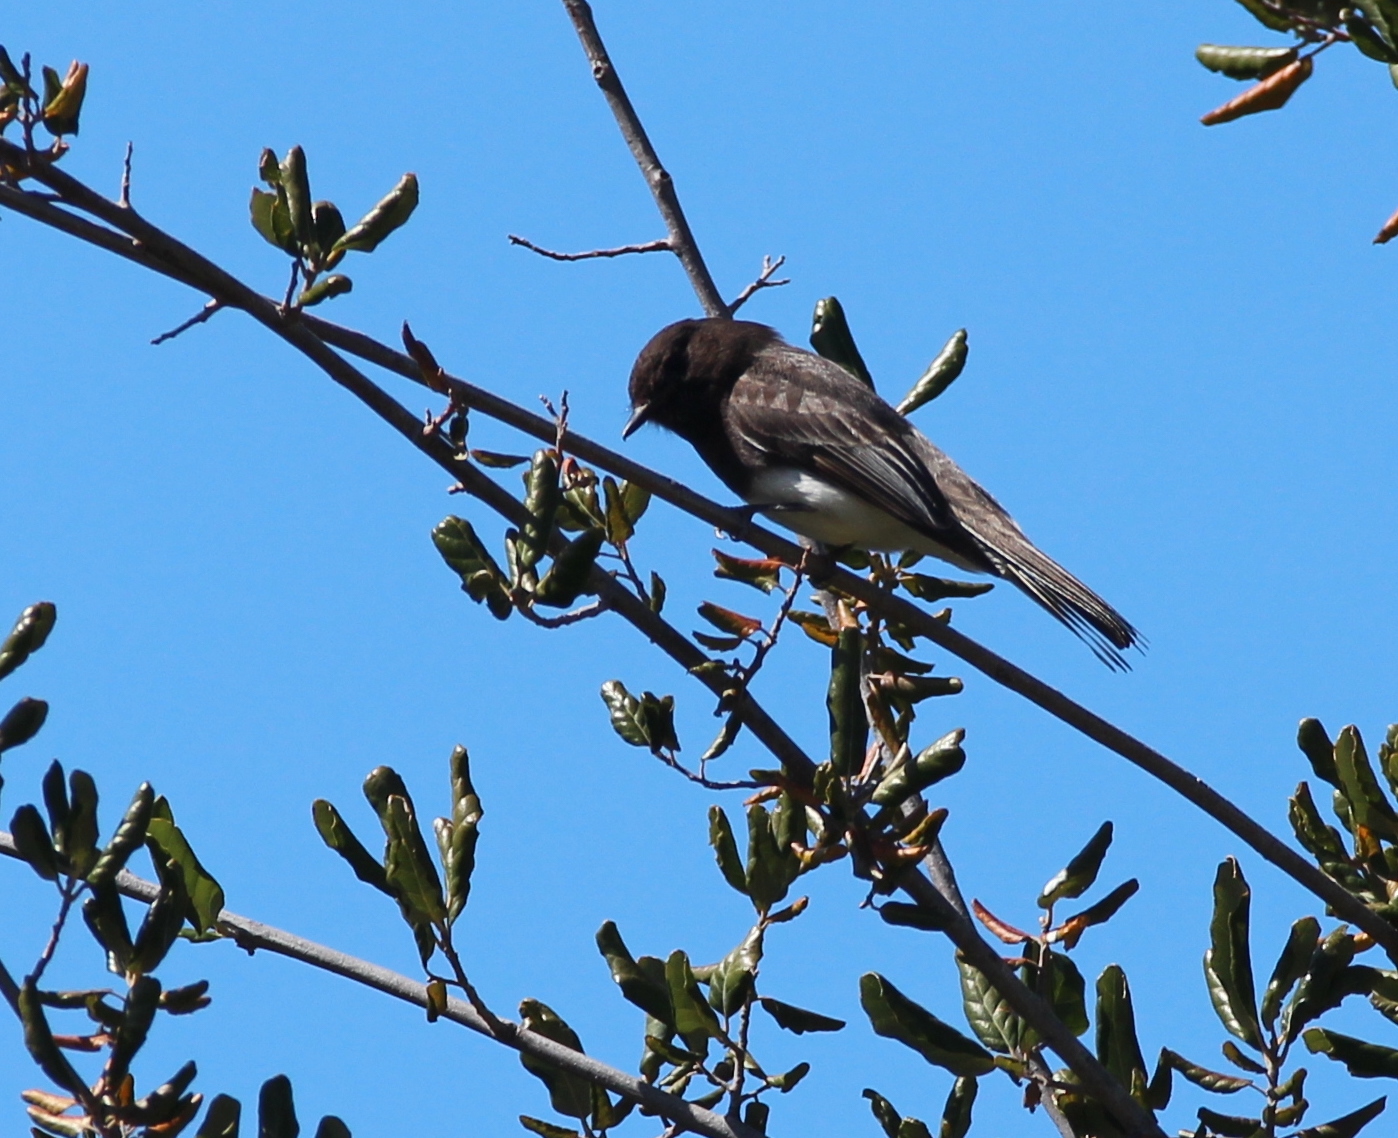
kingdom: Animalia
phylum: Chordata
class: Aves
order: Passeriformes
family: Tyrannidae
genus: Sayornis
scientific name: Sayornis nigricans
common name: Black phoebe
